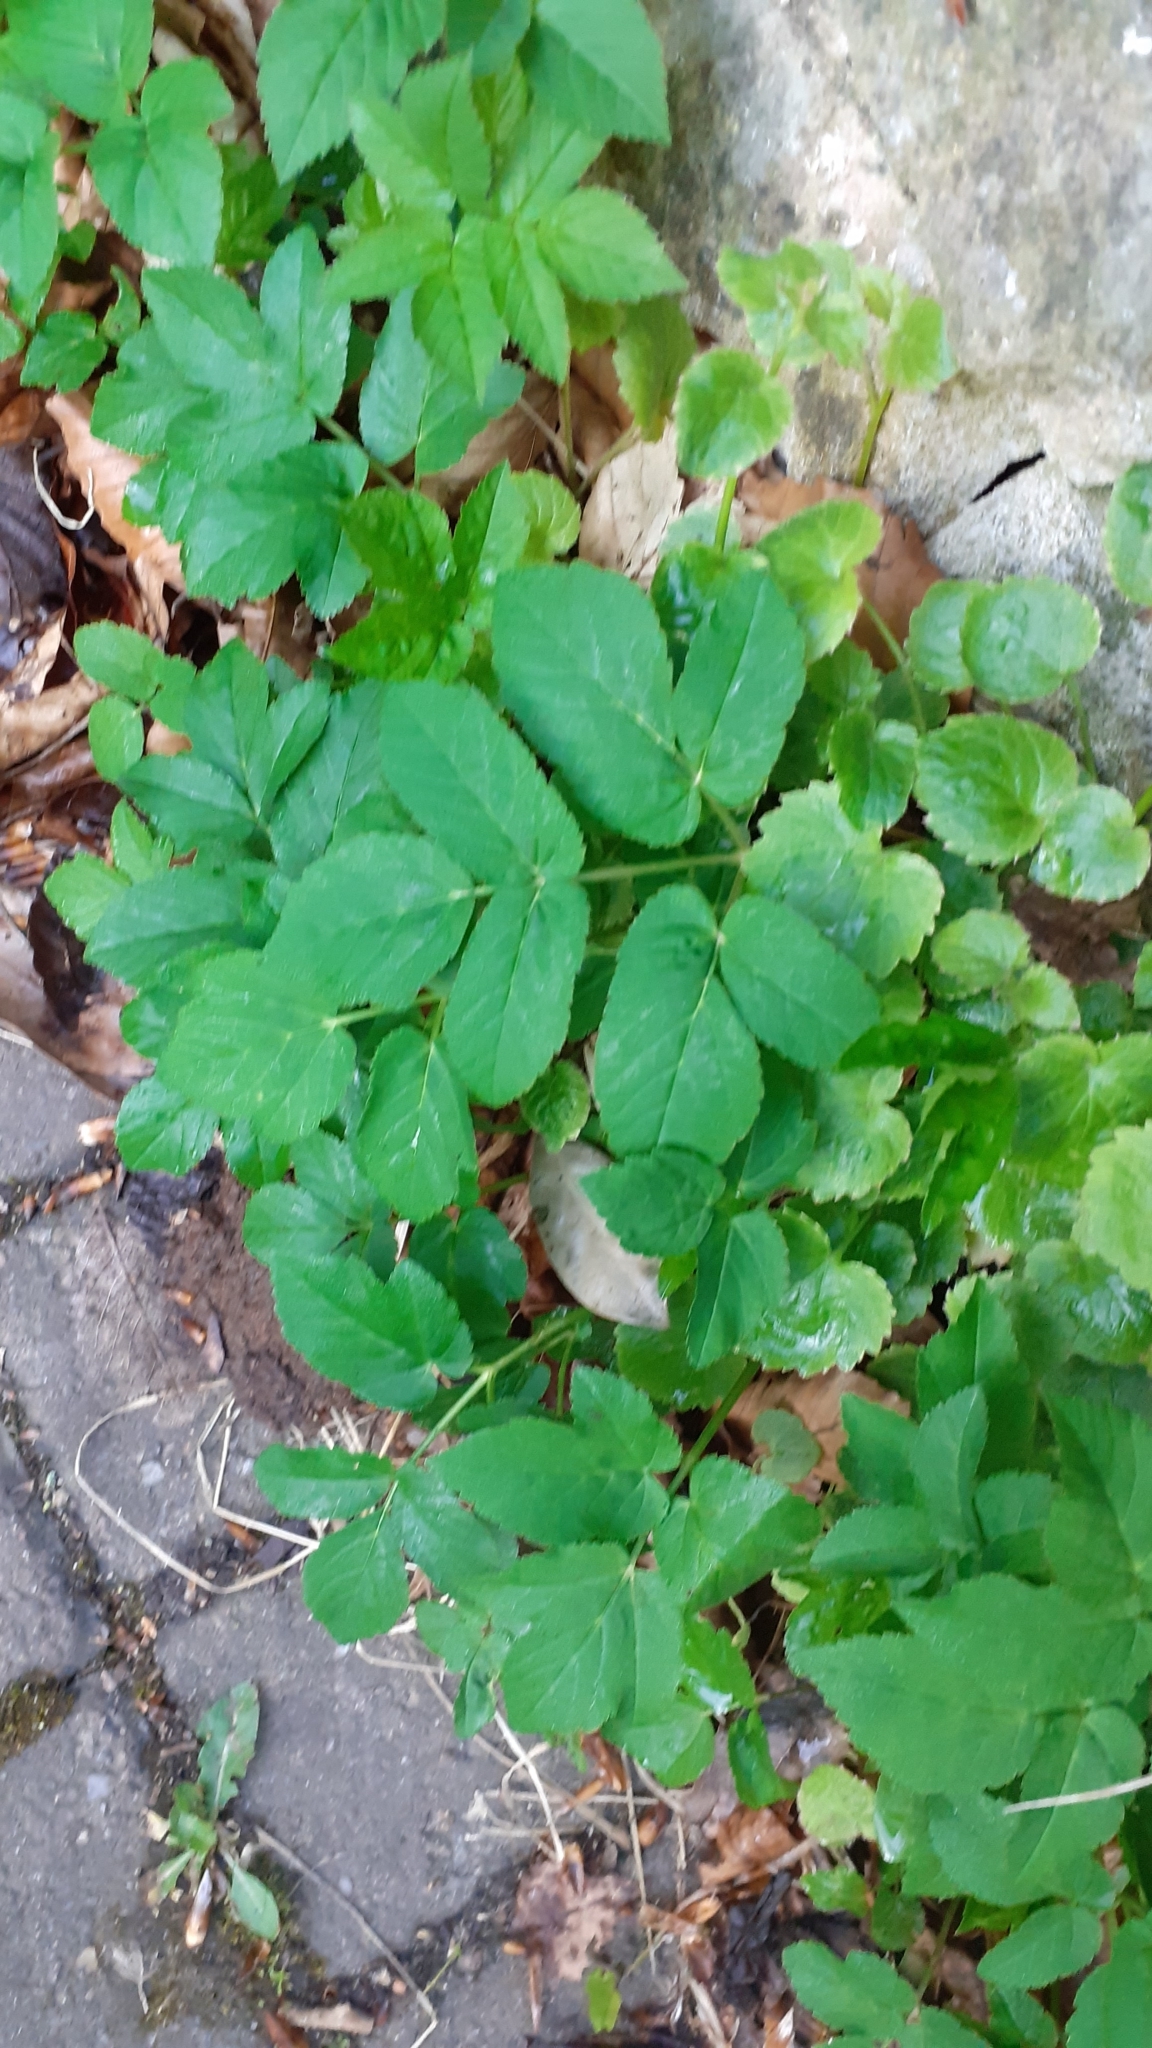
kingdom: Plantae
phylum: Tracheophyta
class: Magnoliopsida
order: Apiales
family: Apiaceae
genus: Aegopodium
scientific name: Aegopodium podagraria
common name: Ground-elder
